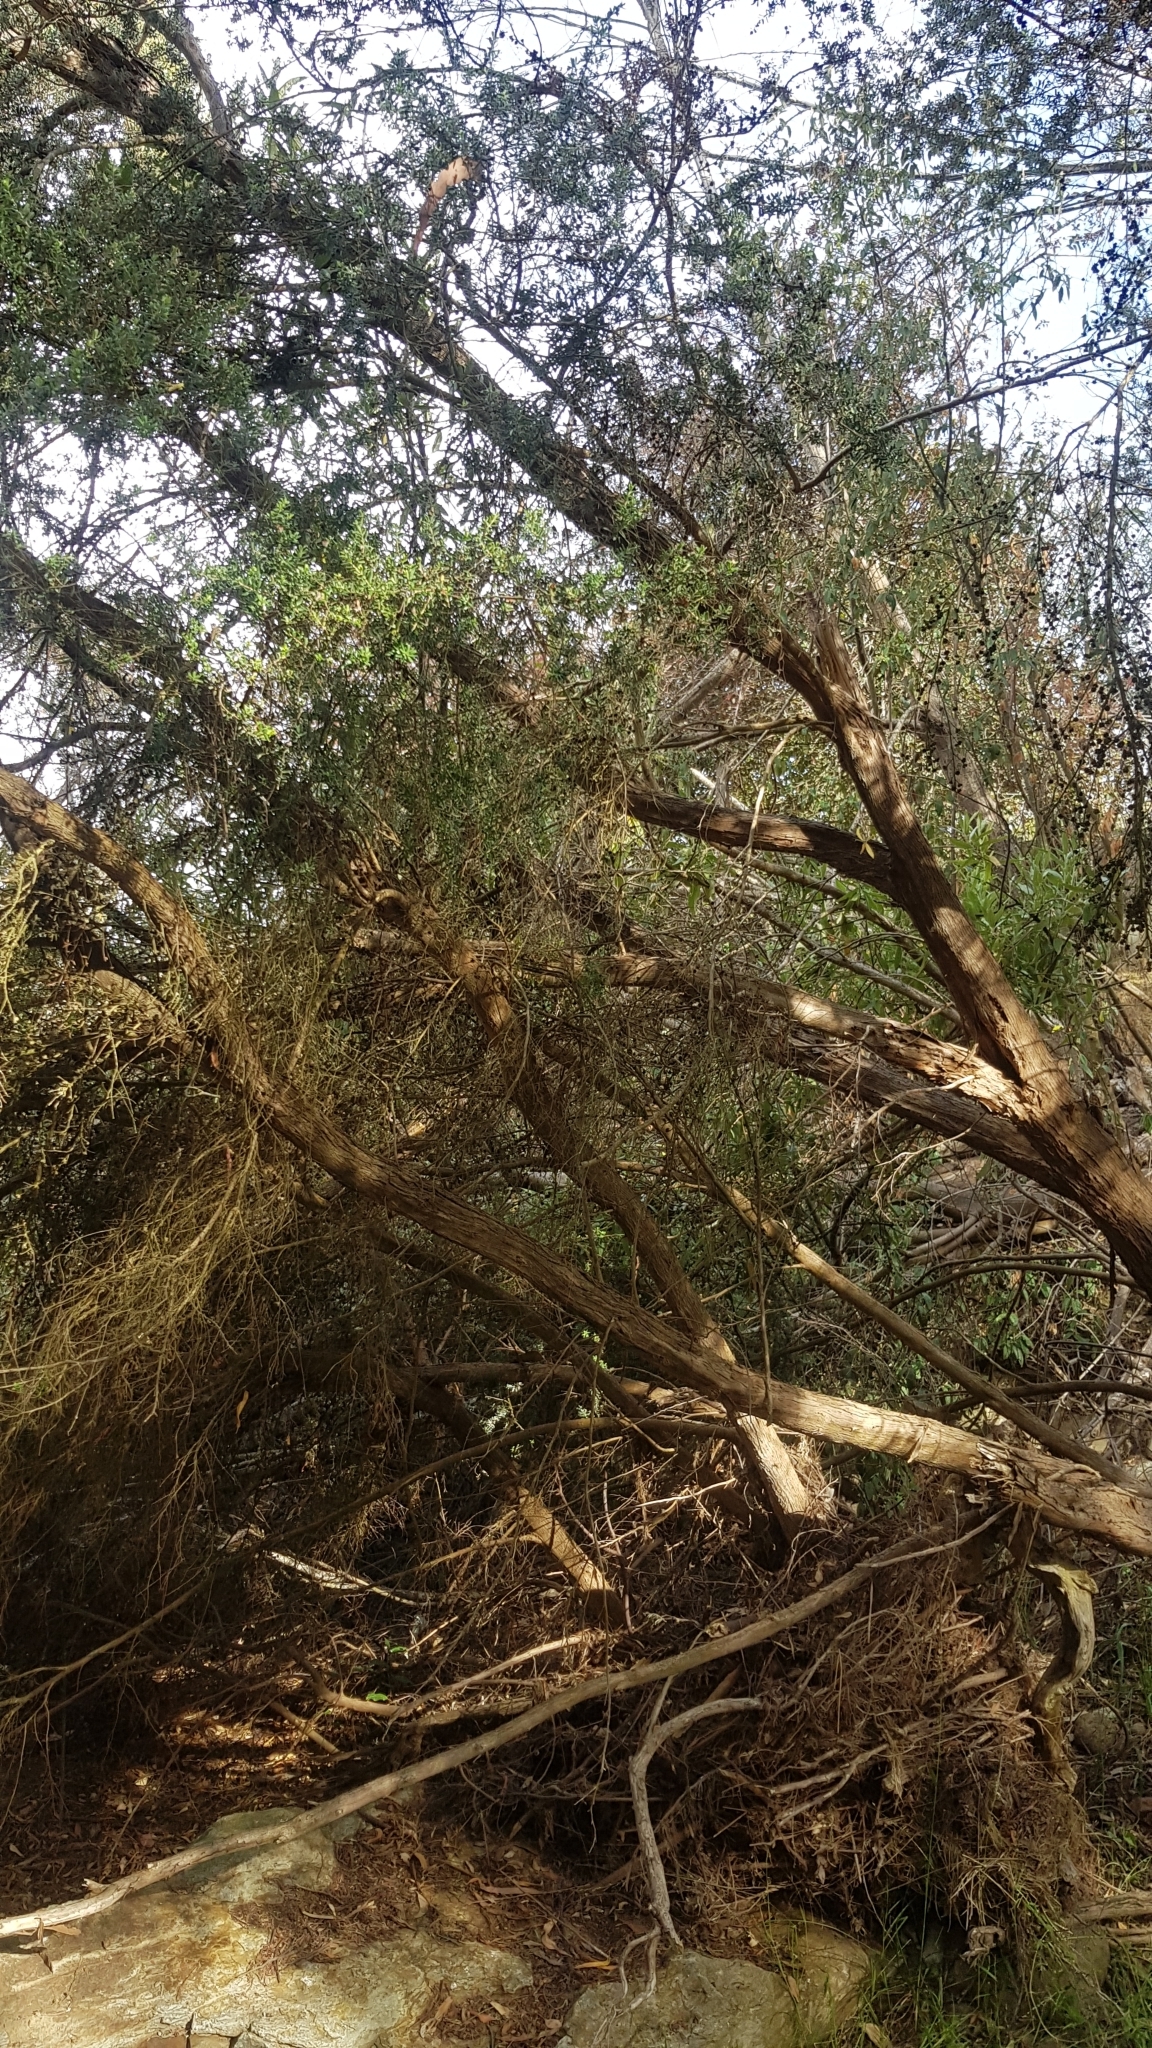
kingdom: Plantae
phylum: Tracheophyta
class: Magnoliopsida
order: Myrtales
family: Myrtaceae
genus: Leptospermum
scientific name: Leptospermum lanigerum
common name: Woolly tea-tree
